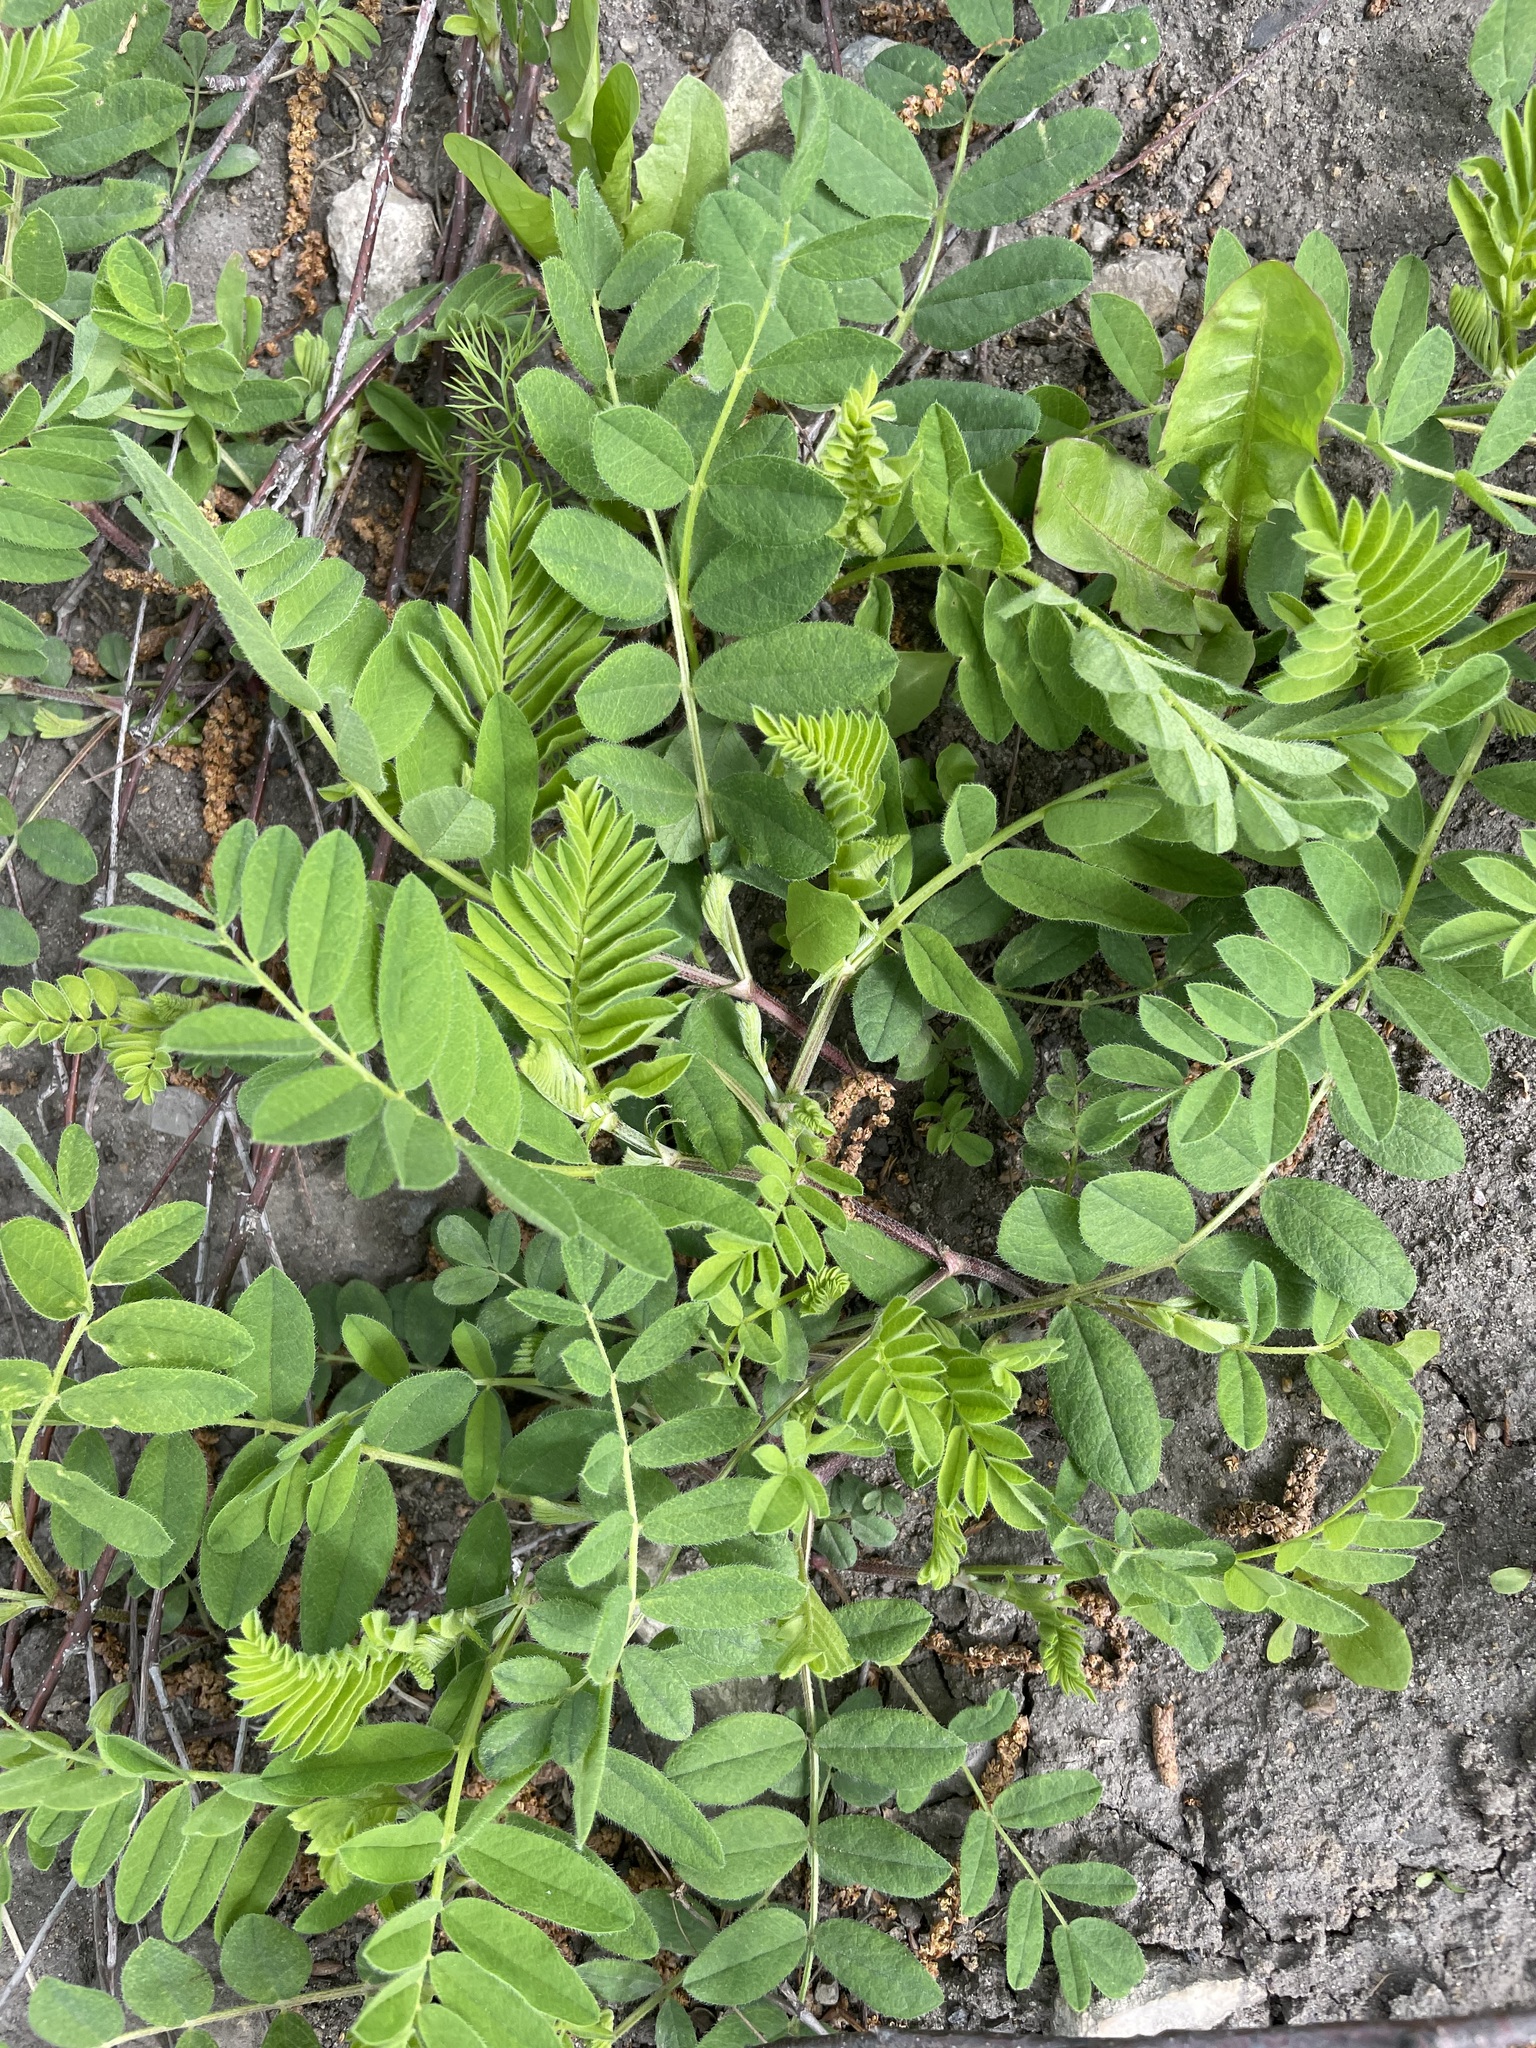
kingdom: Plantae
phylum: Tracheophyta
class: Magnoliopsida
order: Fabales
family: Fabaceae
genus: Astragalus
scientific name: Astragalus cicer
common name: Chick-pea milk-vetch
